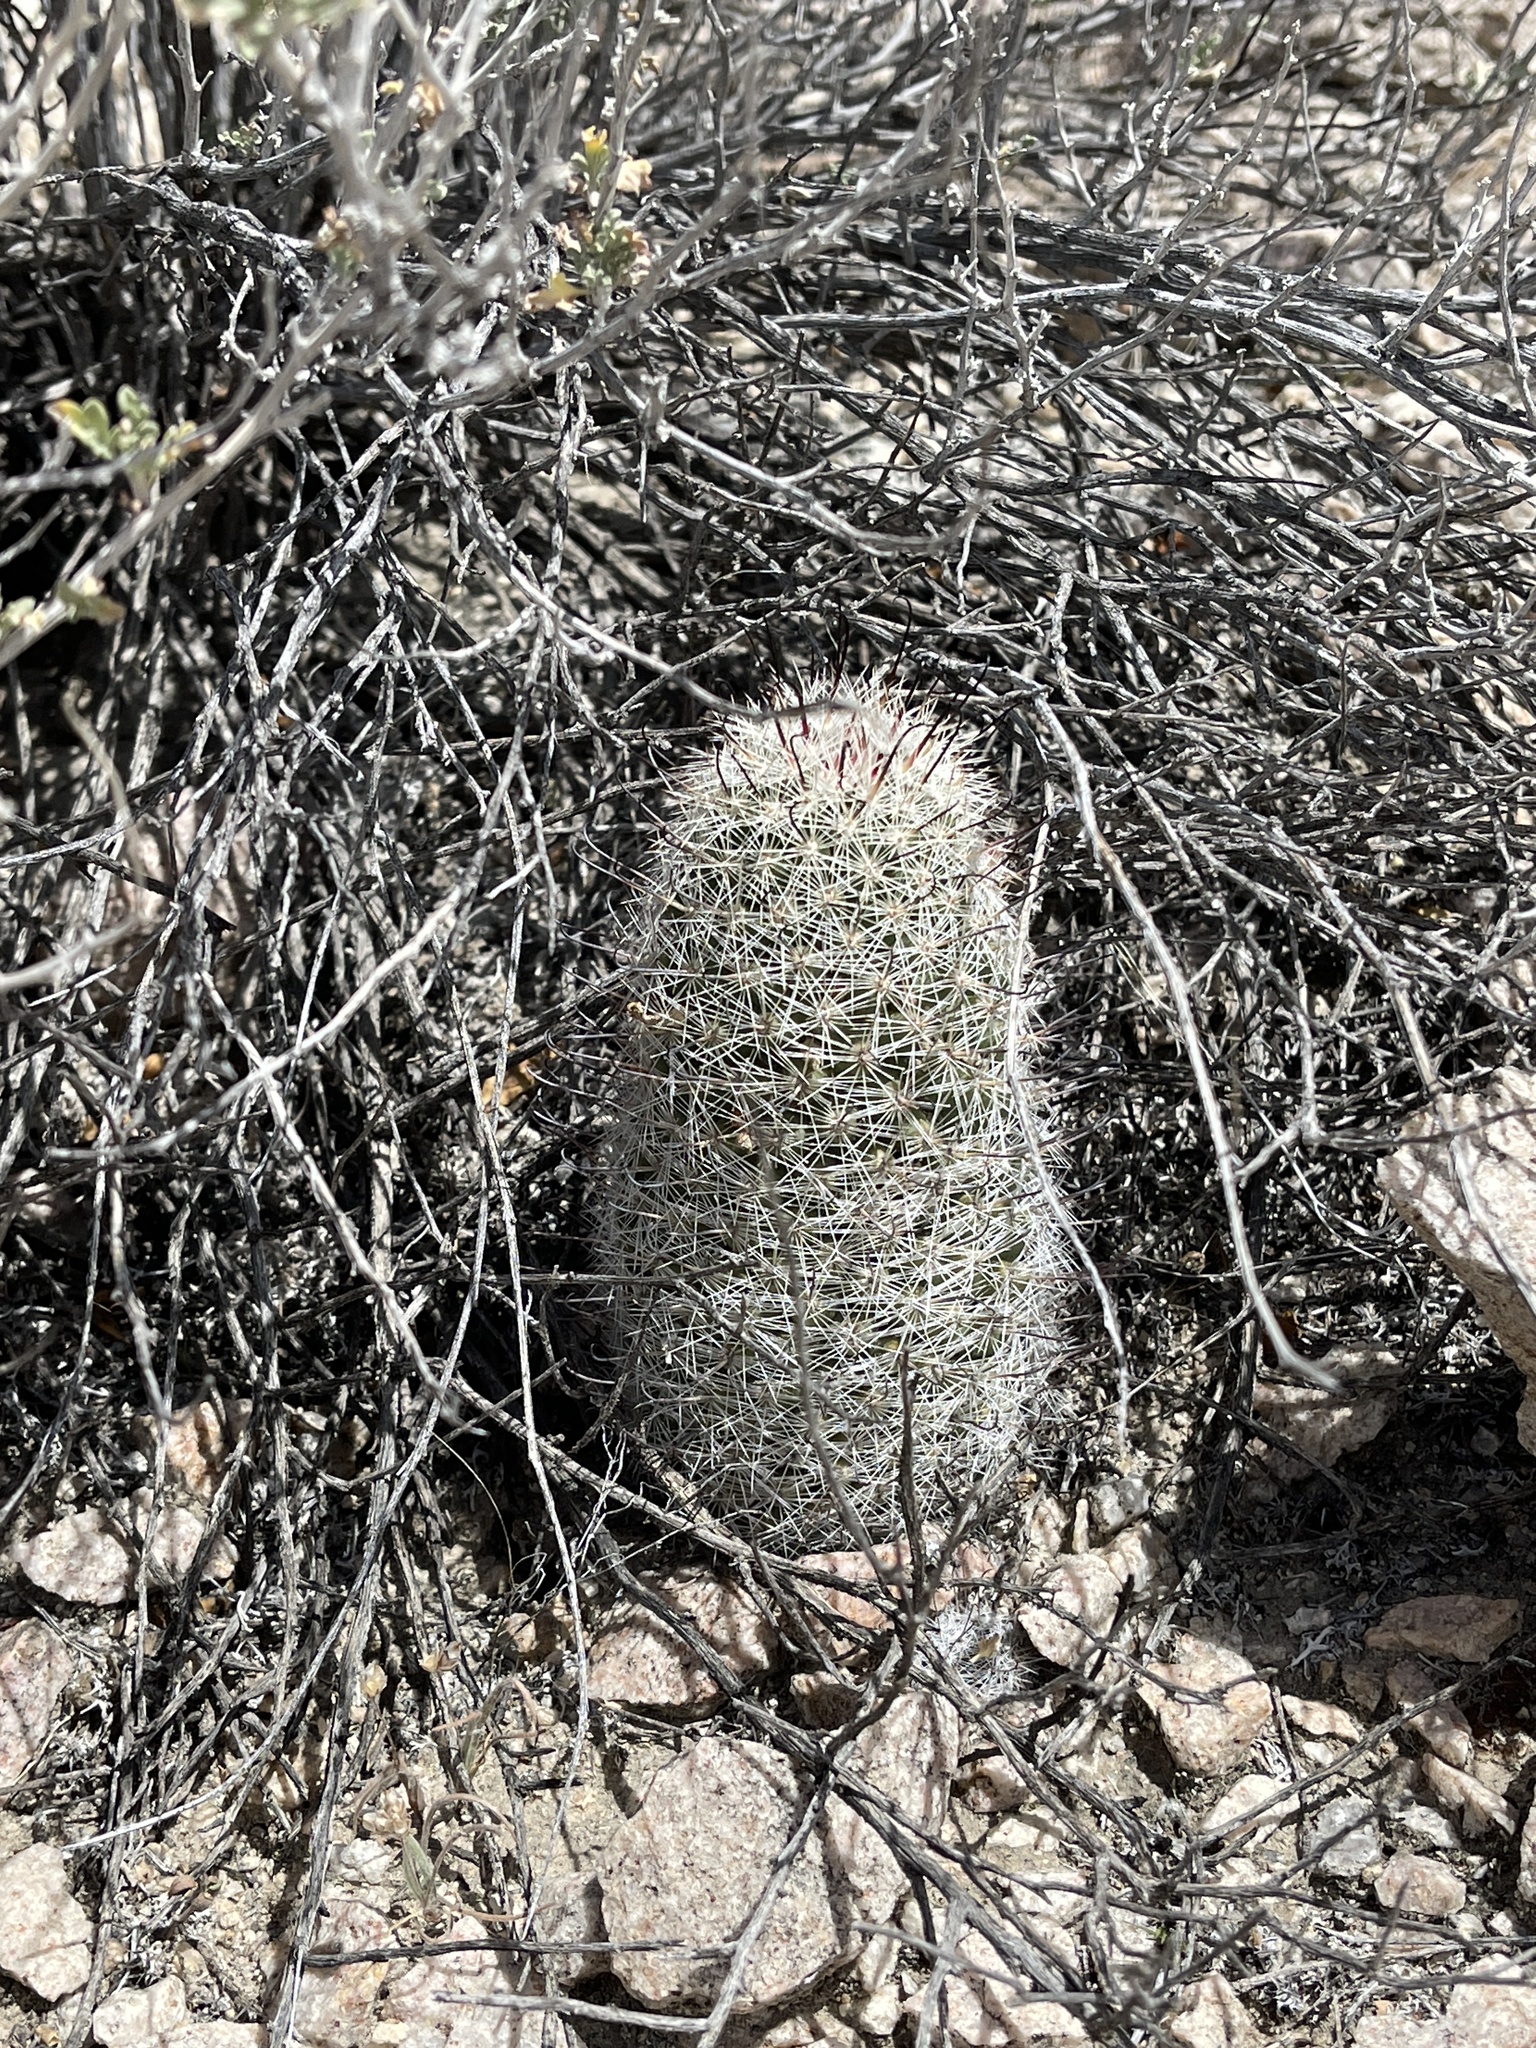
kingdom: Plantae
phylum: Tracheophyta
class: Magnoliopsida
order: Caryophyllales
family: Cactaceae
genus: Cochemiea
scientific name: Cochemiea grahamii
